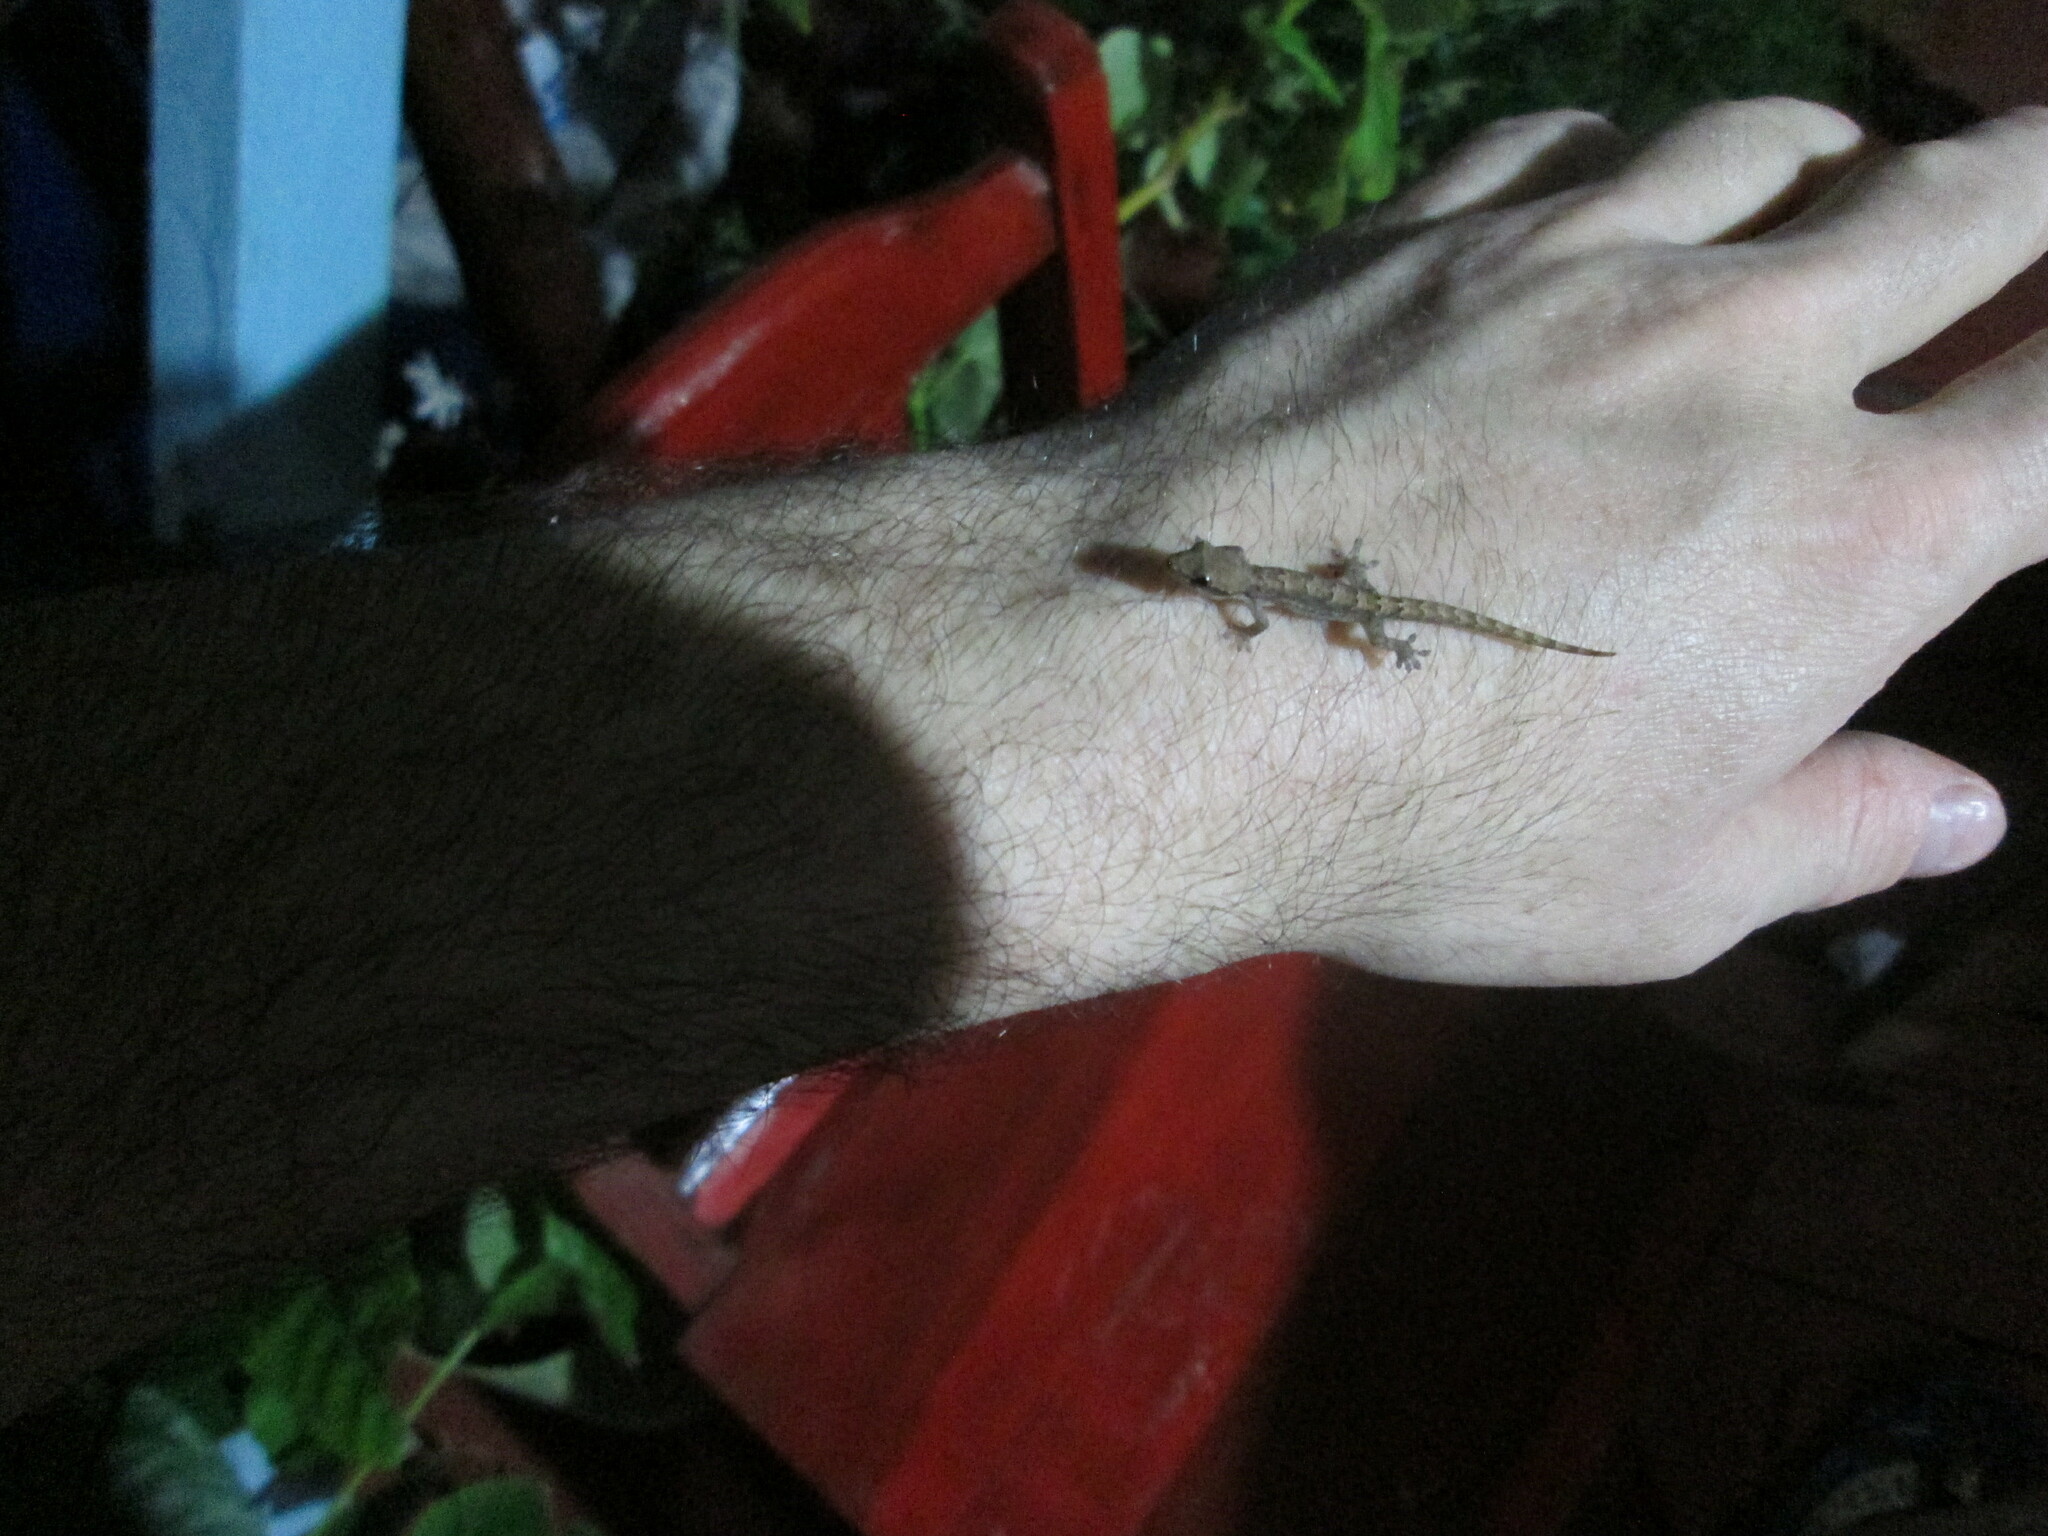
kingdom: Animalia
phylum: Chordata
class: Squamata
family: Gekkonidae
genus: Lepidodactylus
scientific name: Lepidodactylus lugubris
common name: Mourning gecko
